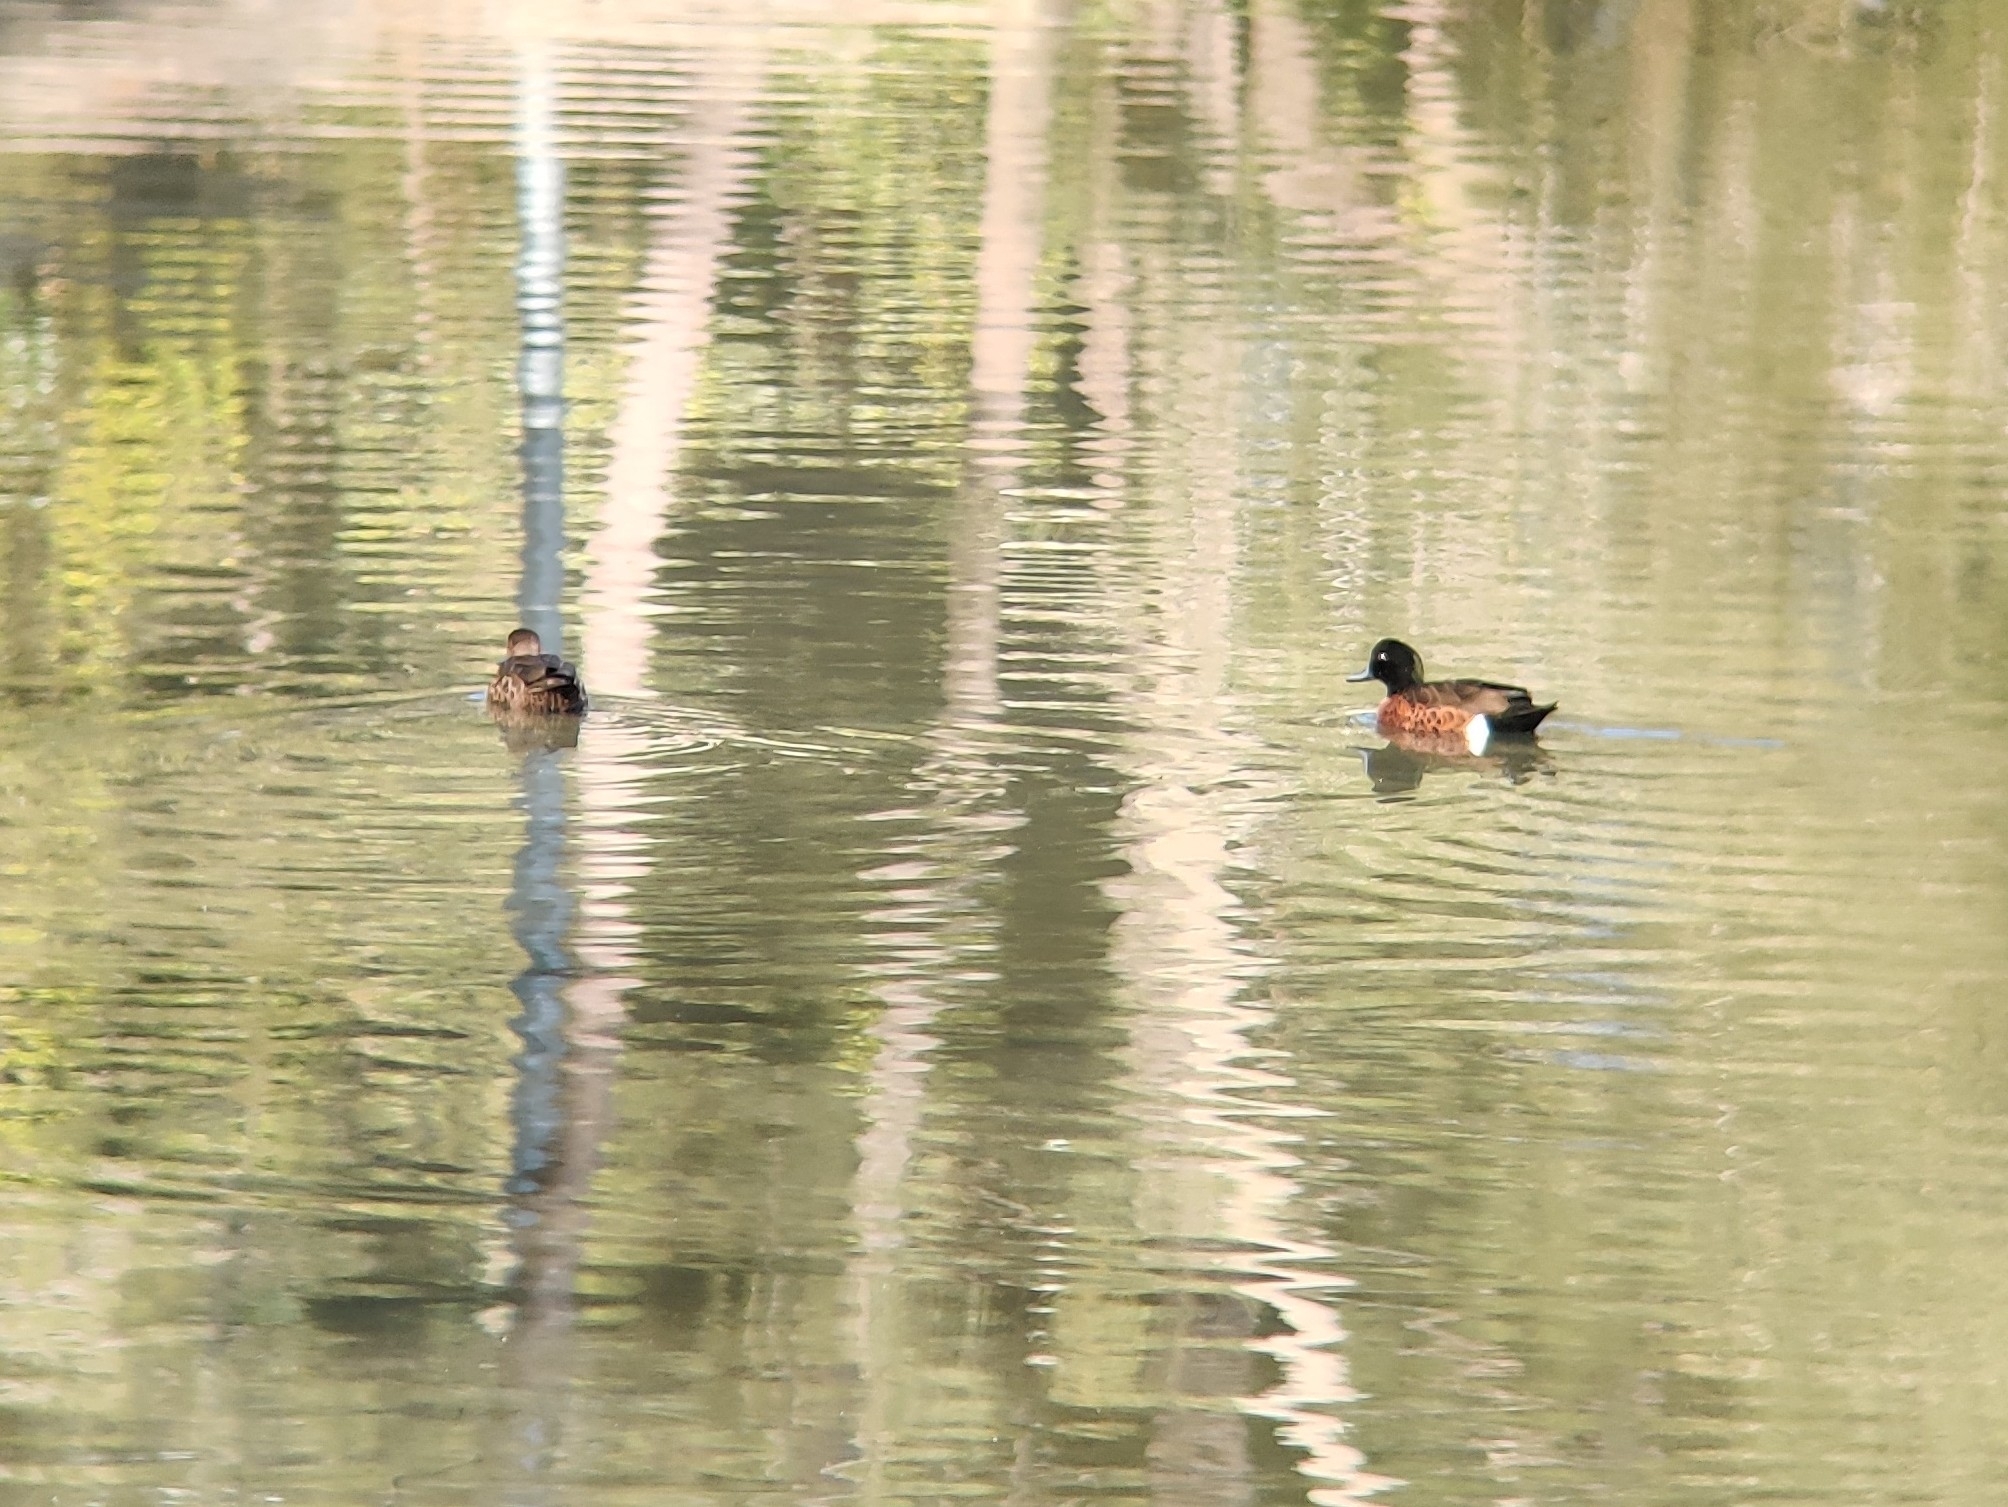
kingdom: Animalia
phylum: Chordata
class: Aves
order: Anseriformes
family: Anatidae
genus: Anas
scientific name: Anas castanea
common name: Chestnut teal
